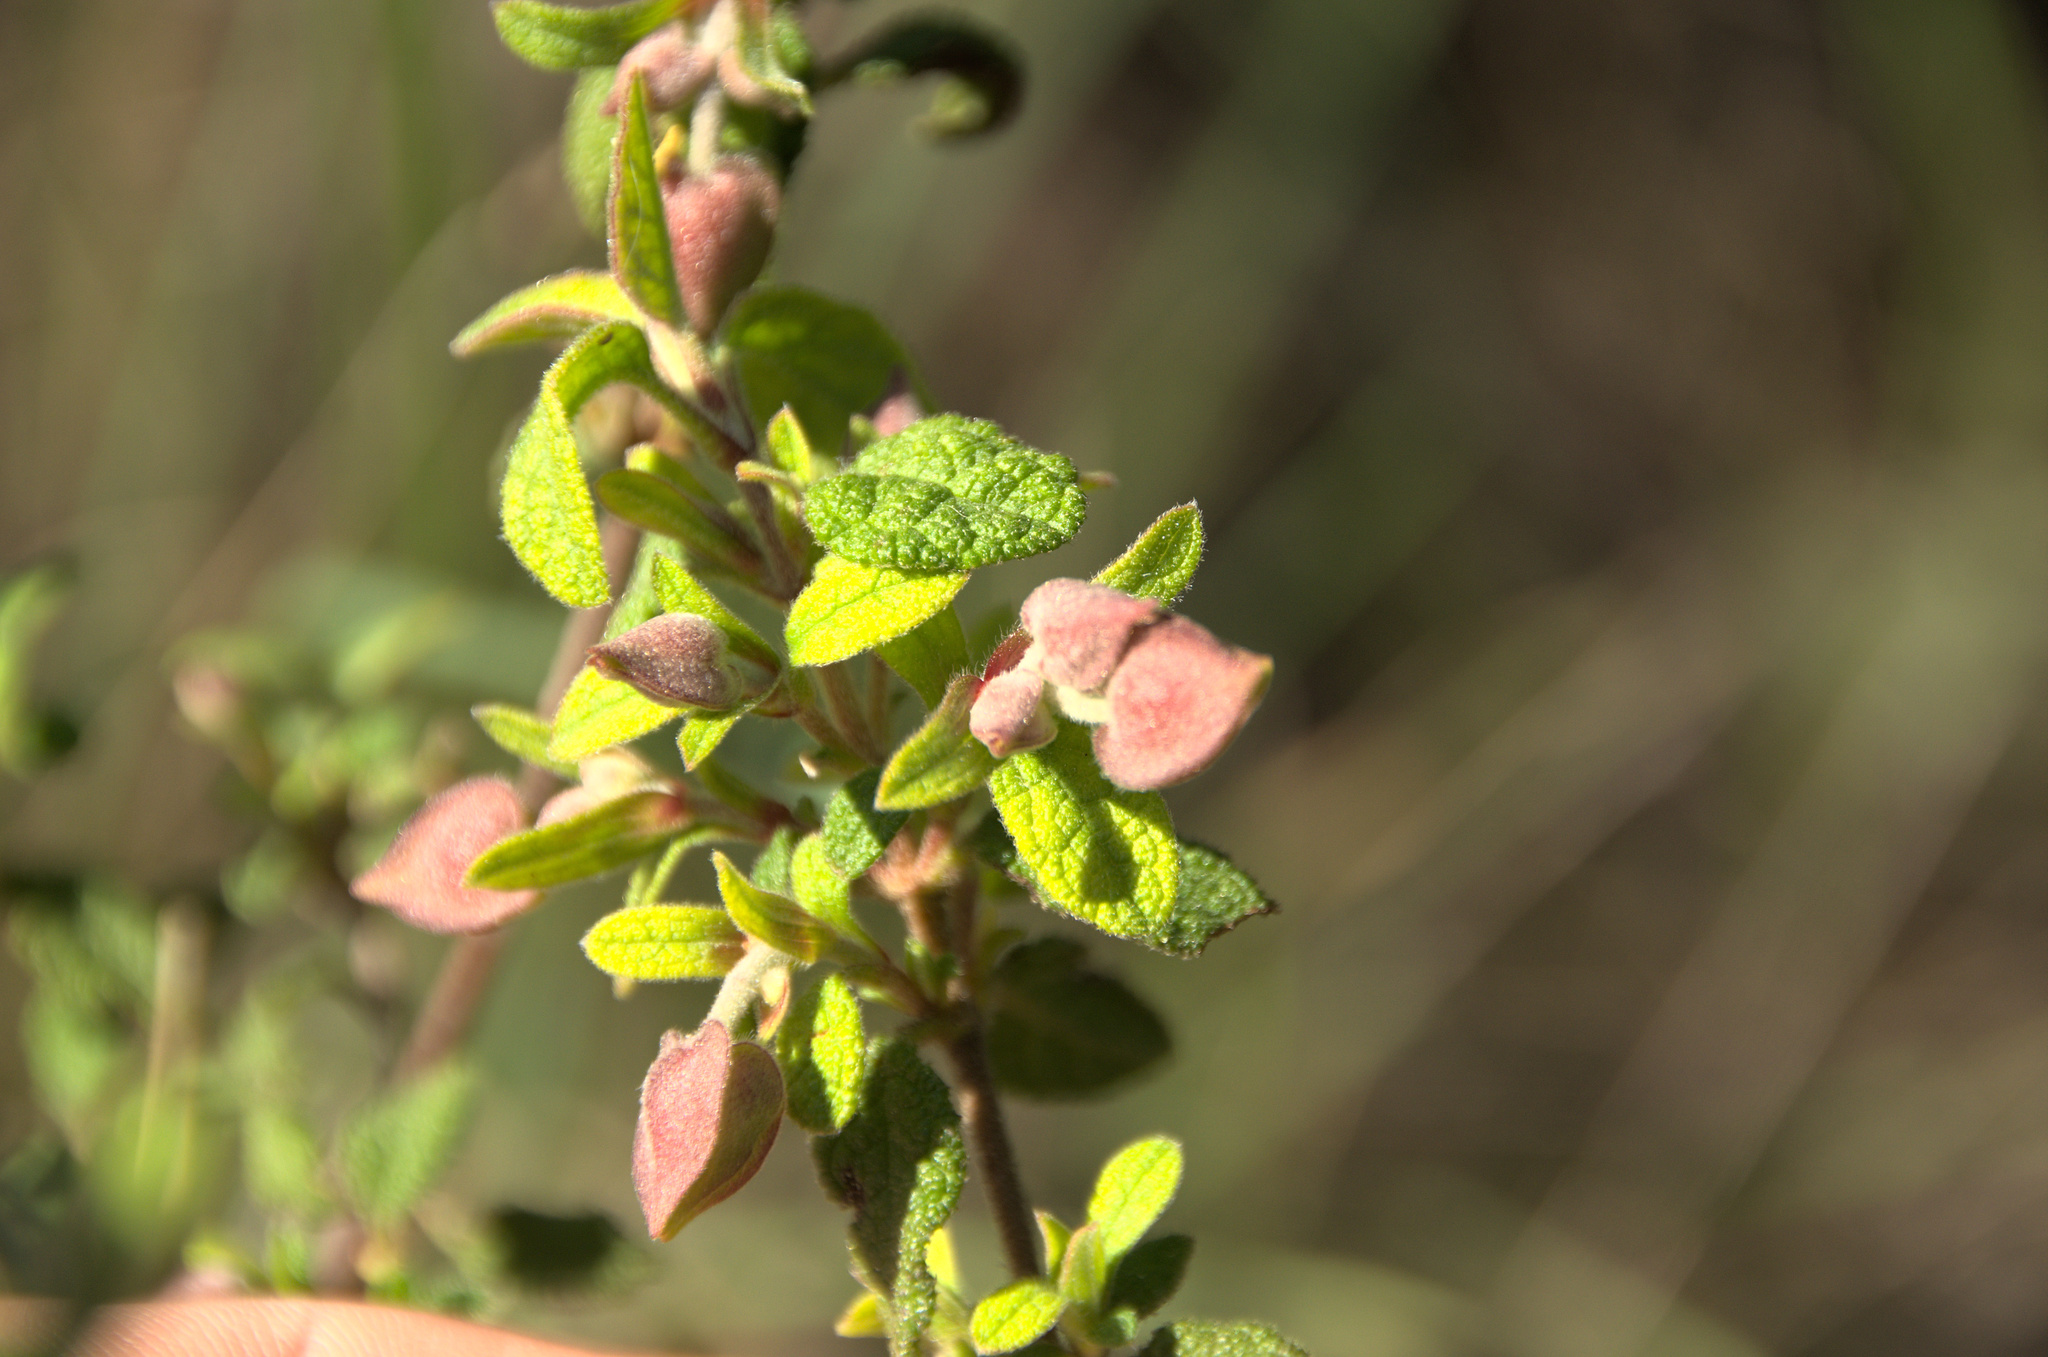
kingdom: Plantae
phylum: Tracheophyta
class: Magnoliopsida
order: Malvales
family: Cistaceae
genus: Cistus
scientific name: Cistus salviifolius
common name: Salvia cistus
